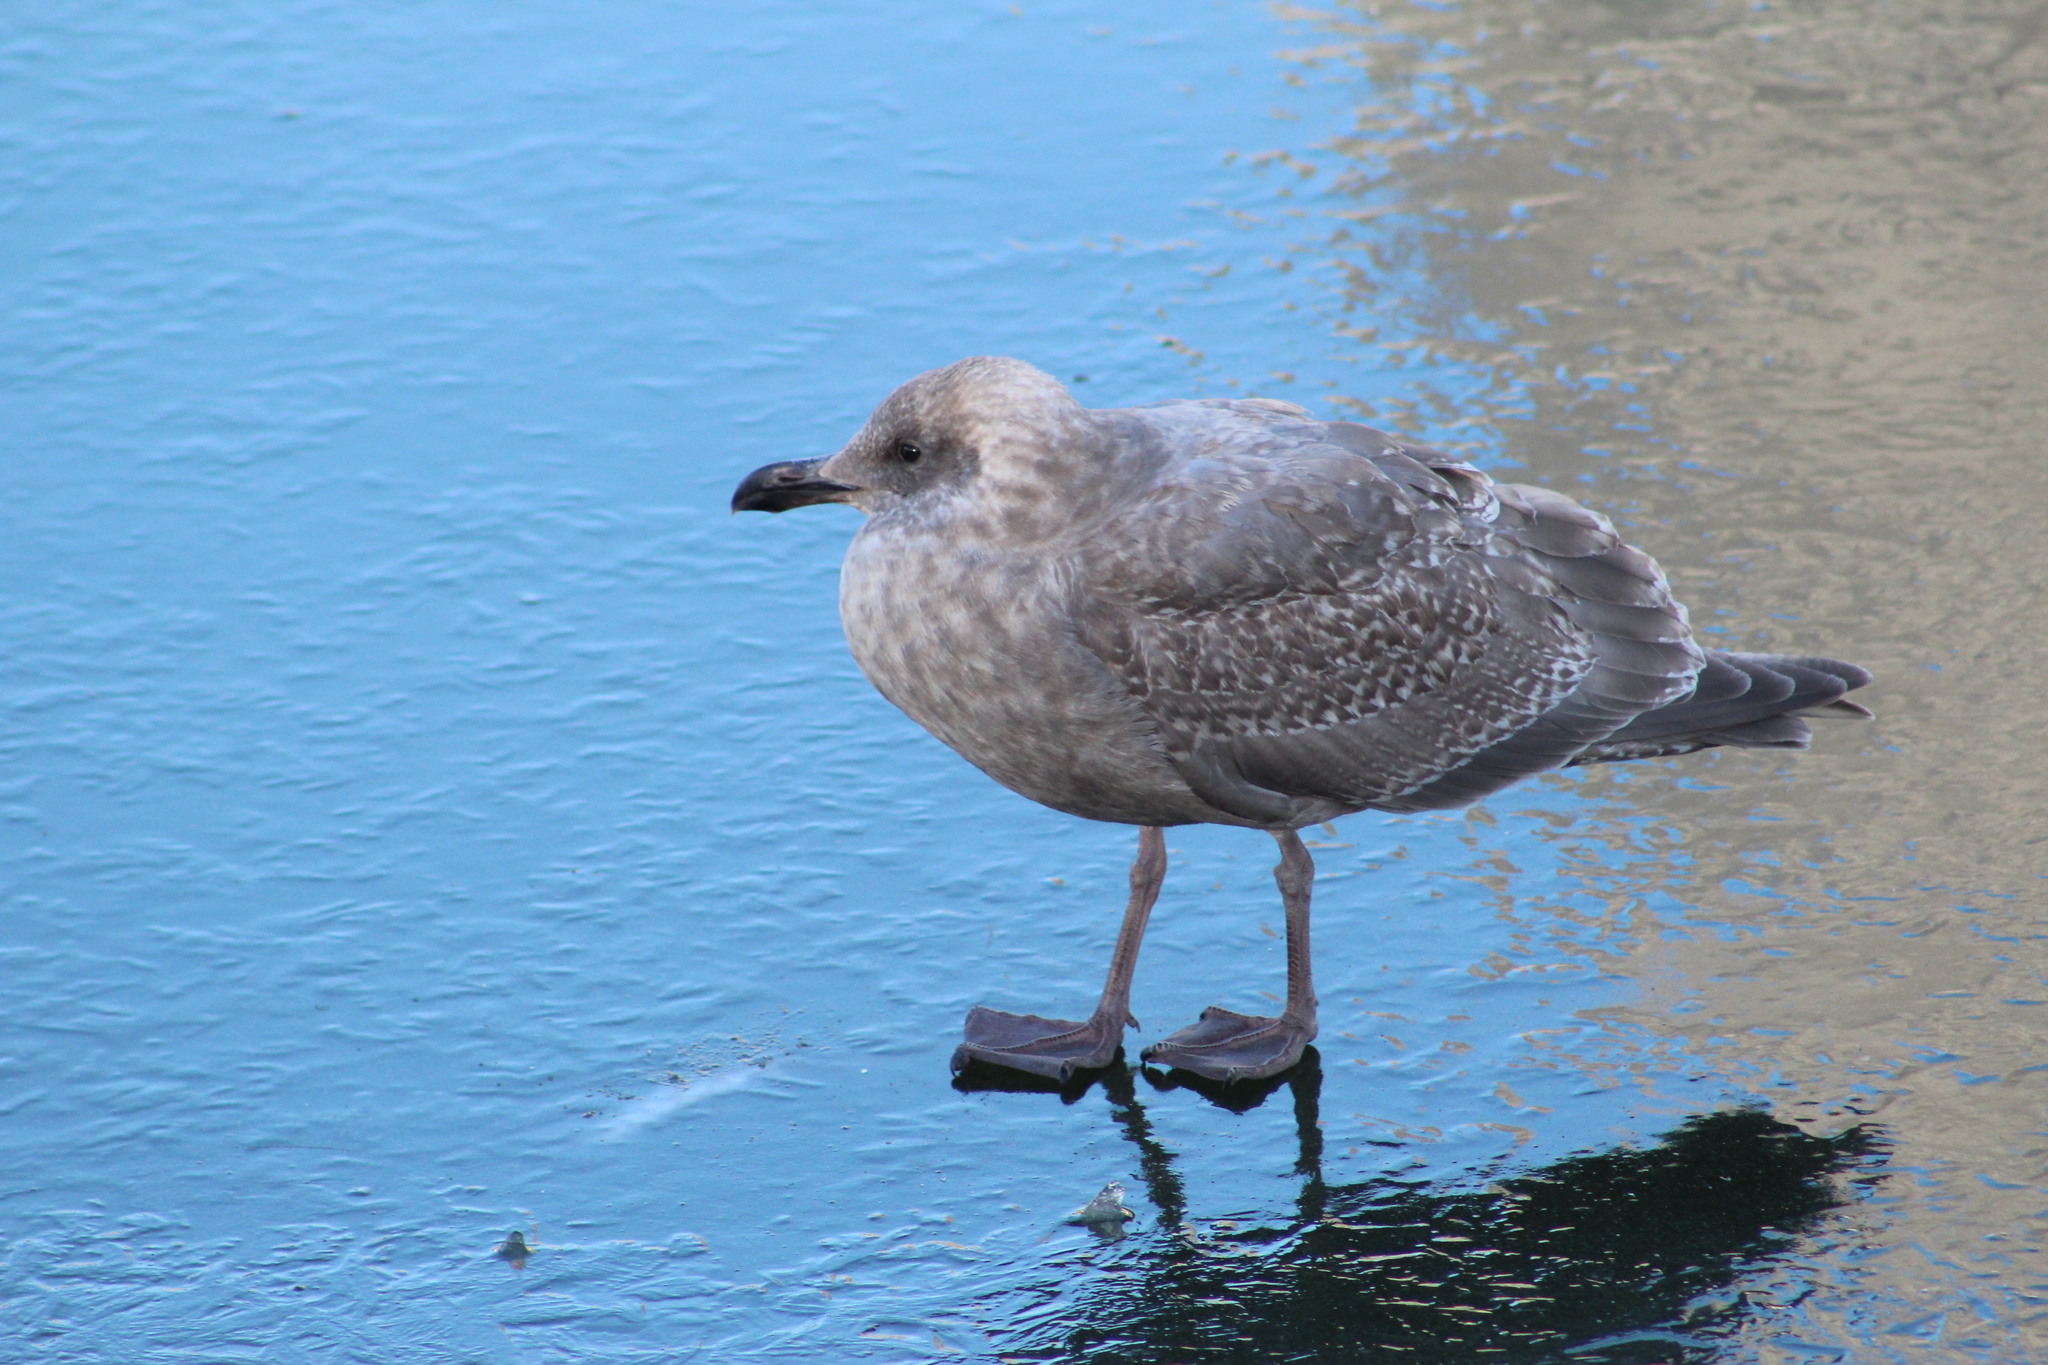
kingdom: Animalia
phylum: Chordata
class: Aves
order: Charadriiformes
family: Laridae
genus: Larus
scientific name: Larus
